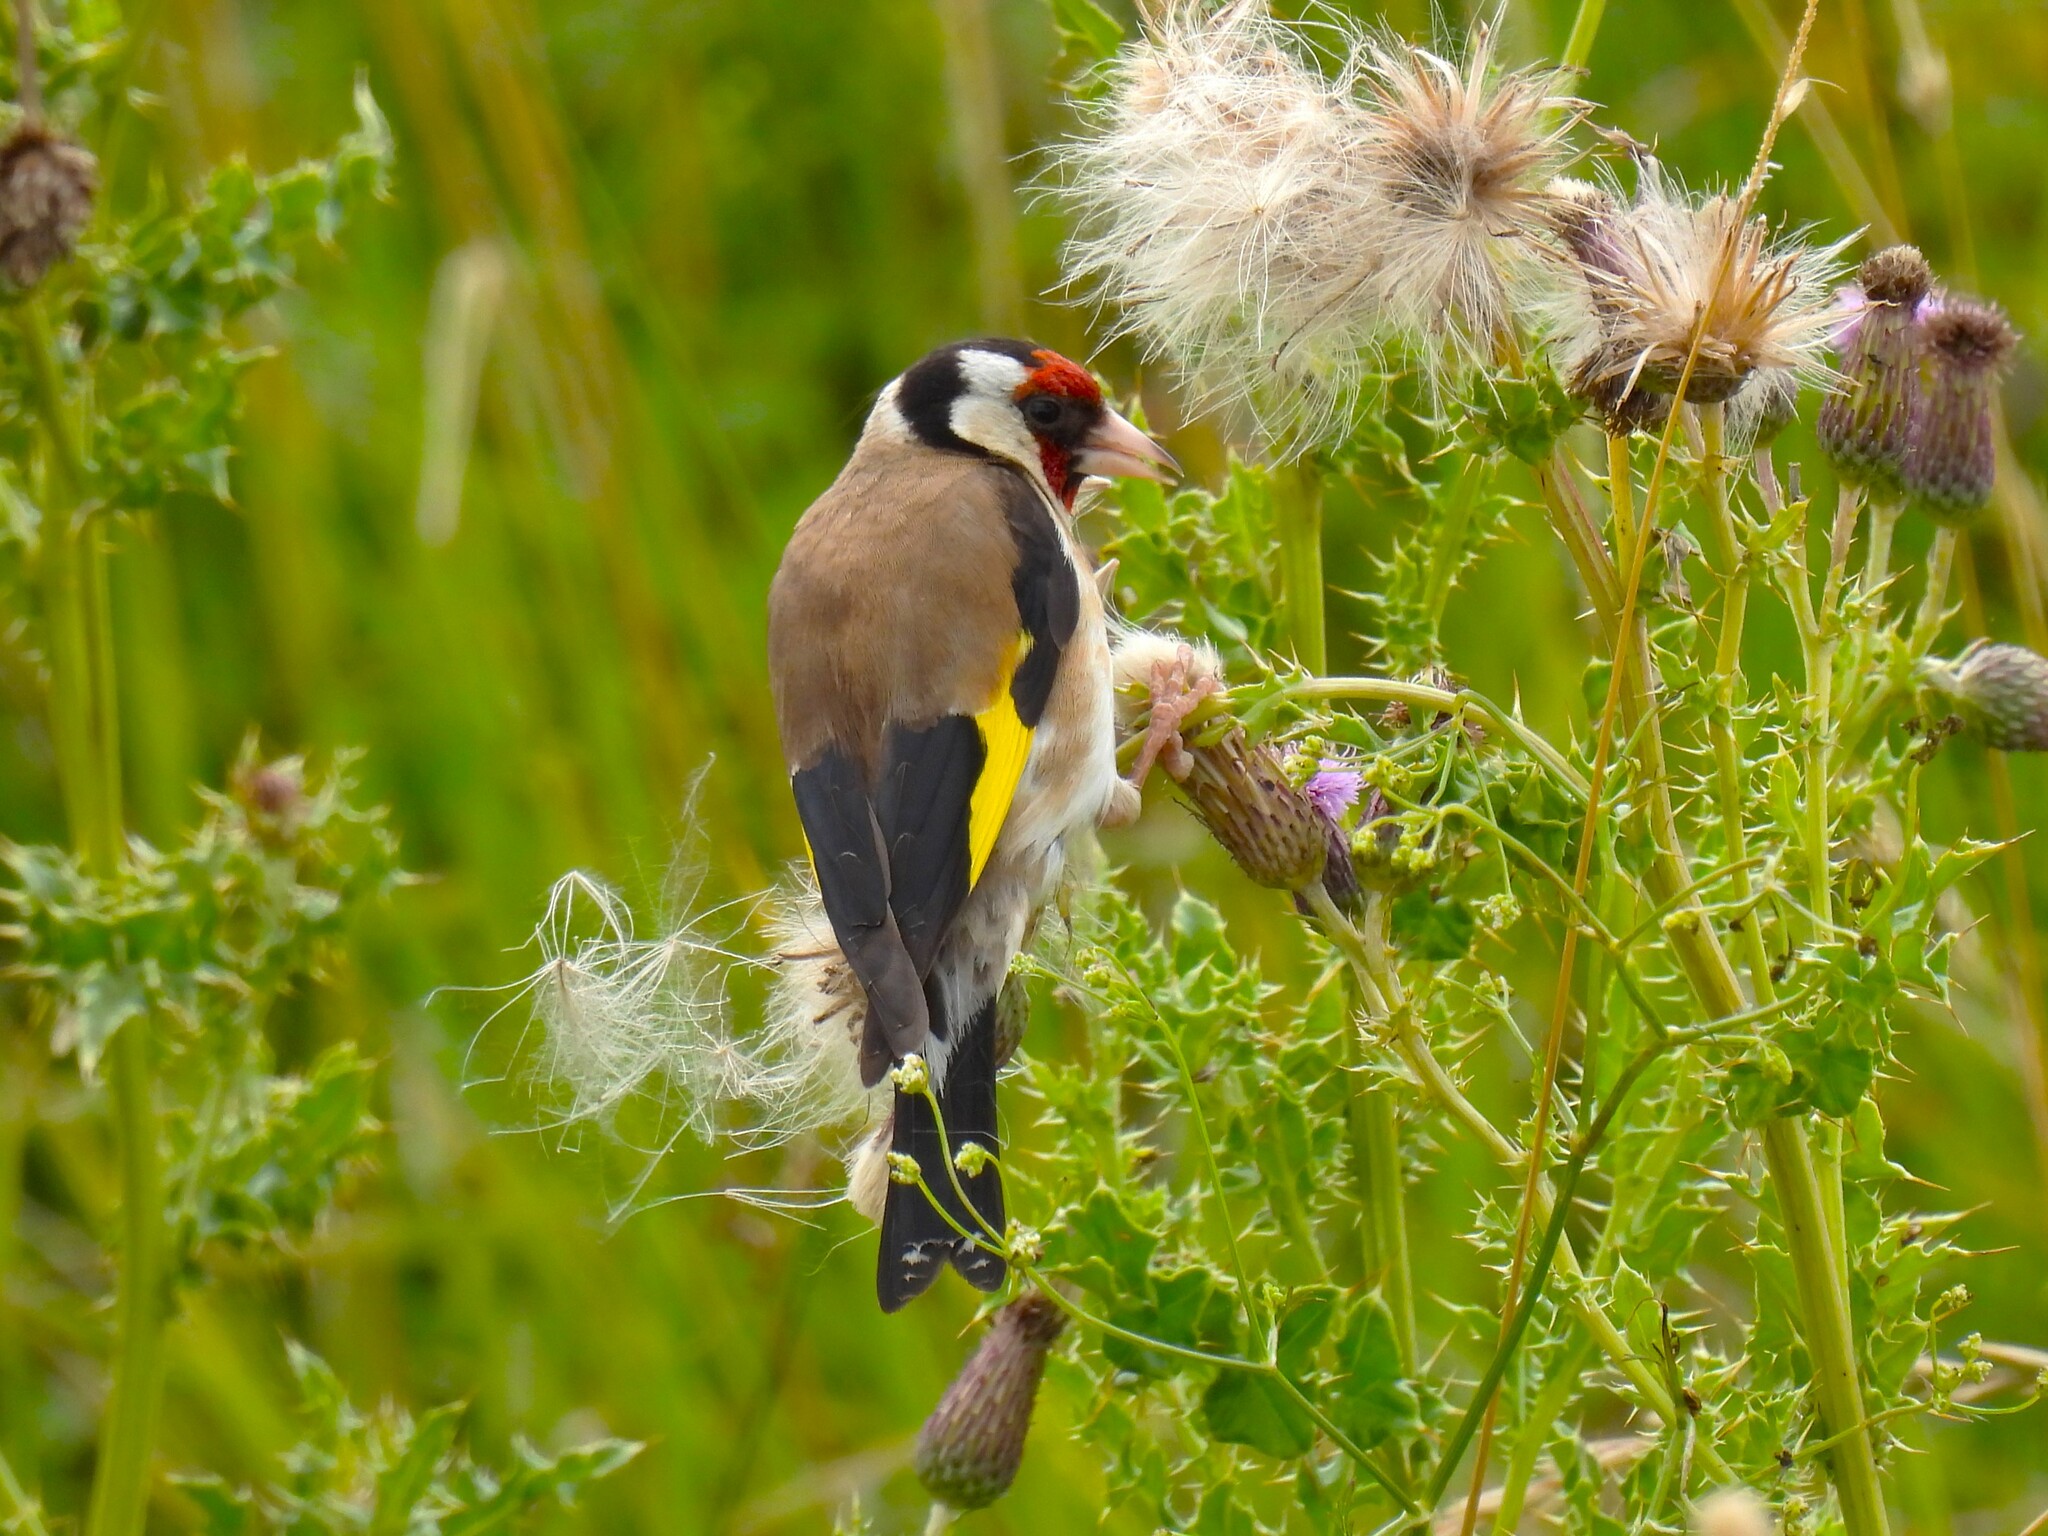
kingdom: Animalia
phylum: Chordata
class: Aves
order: Passeriformes
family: Fringillidae
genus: Carduelis
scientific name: Carduelis carduelis
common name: European goldfinch
